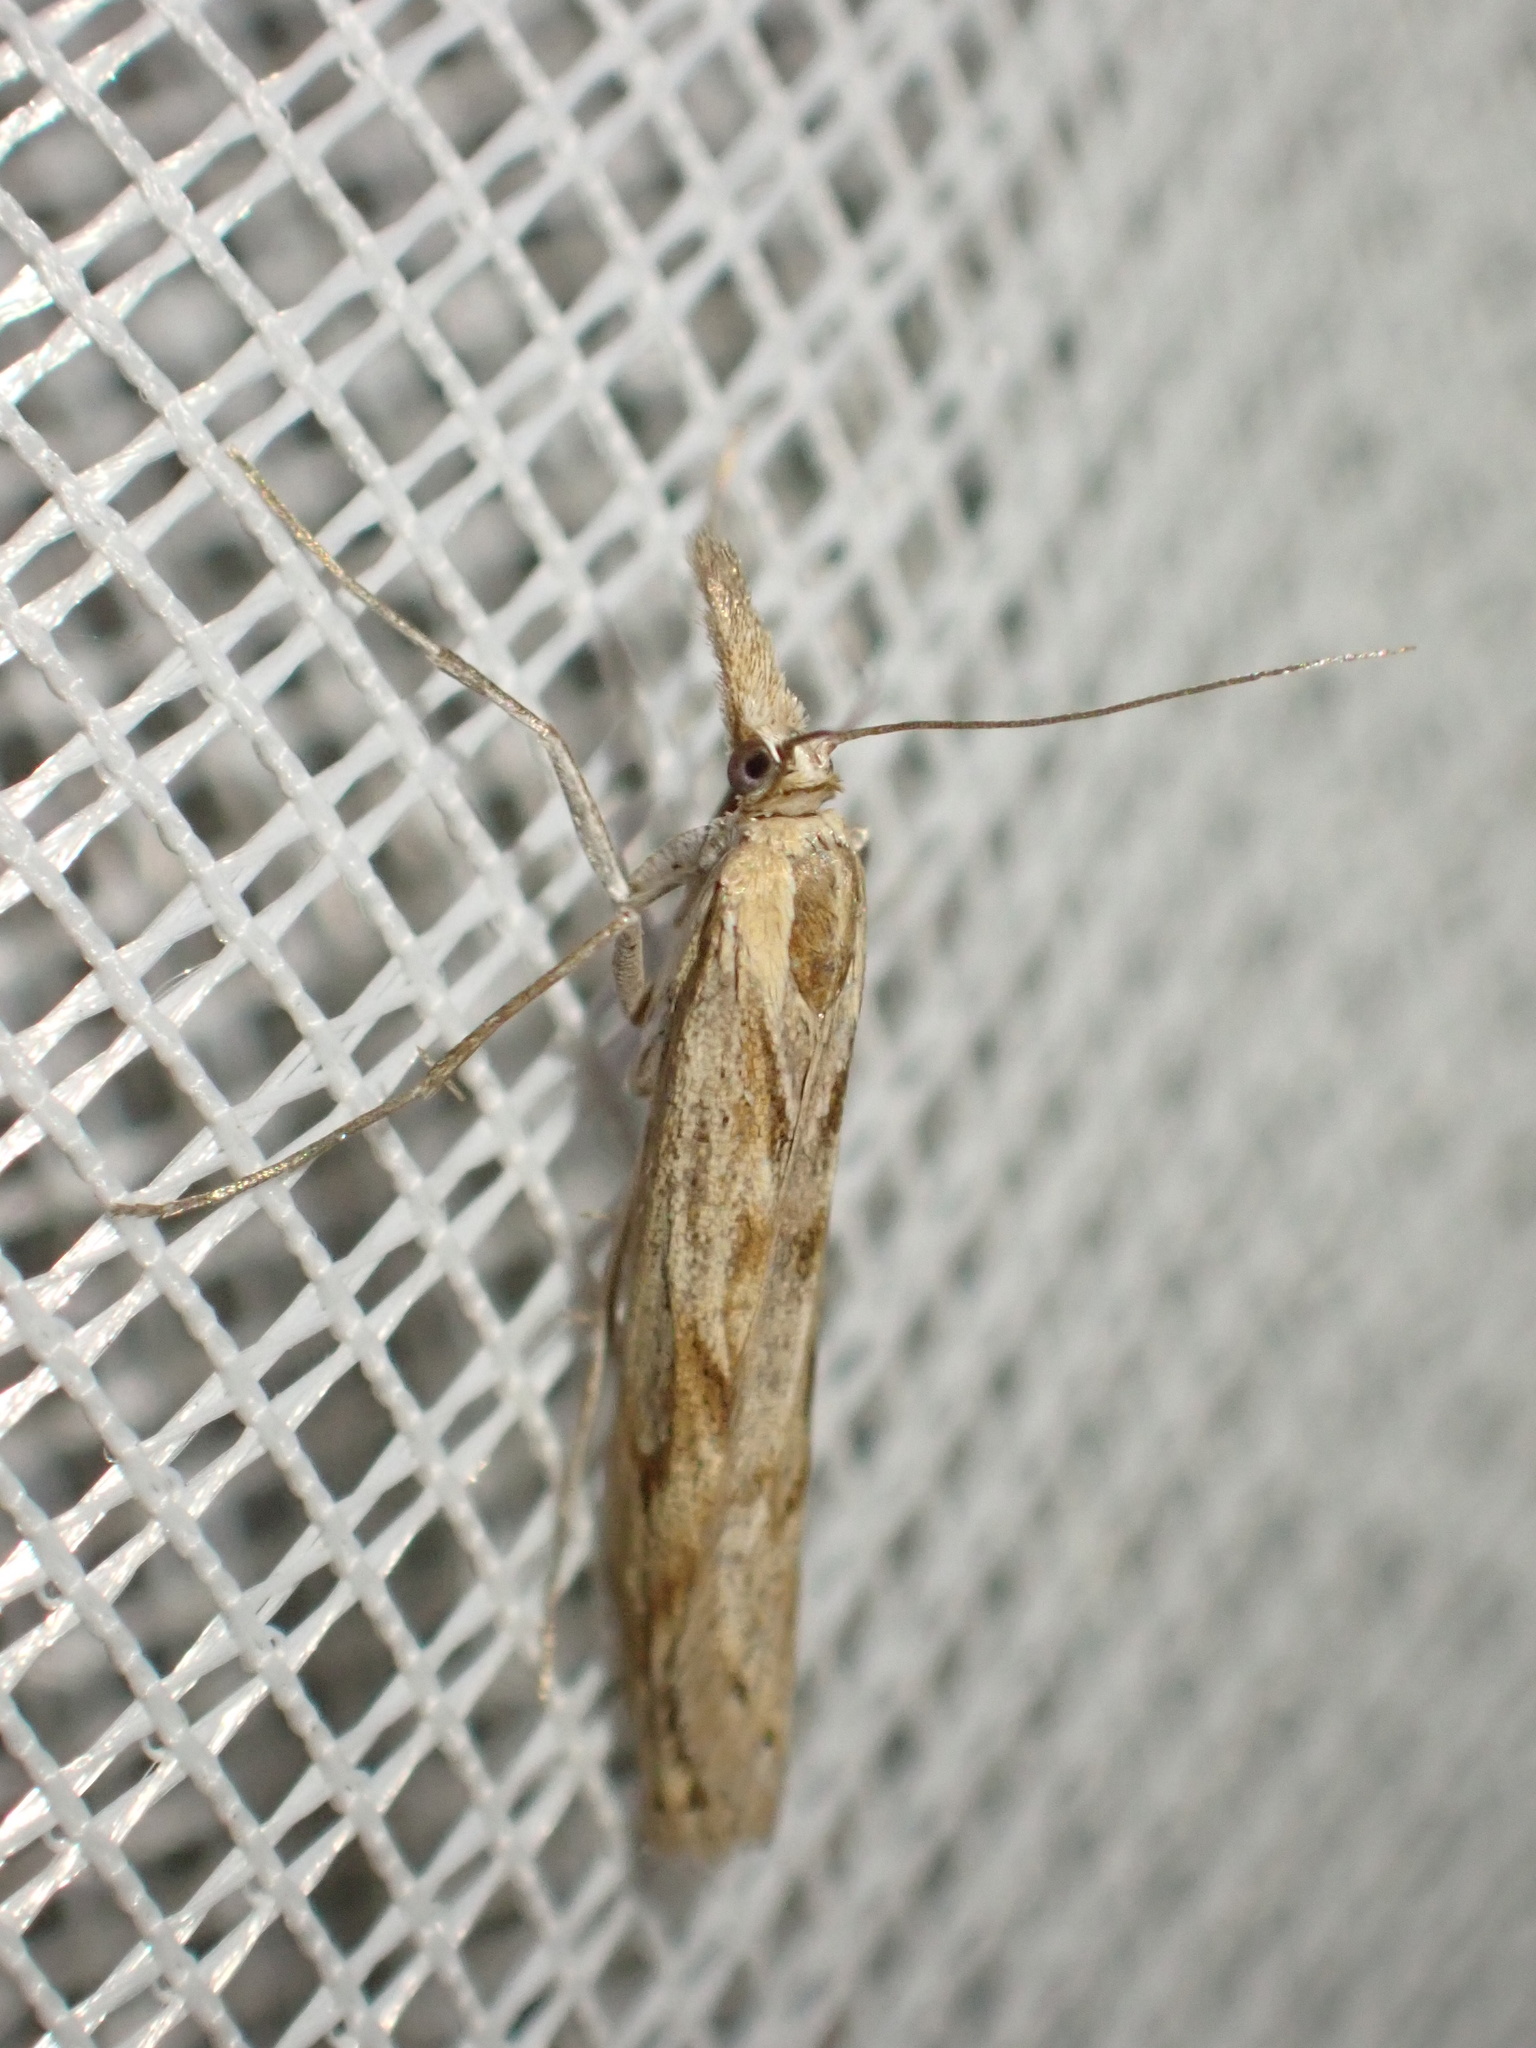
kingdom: Animalia
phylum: Arthropoda
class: Insecta
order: Lepidoptera
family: Crambidae
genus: Pediasia
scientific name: Pediasia angulilinea
